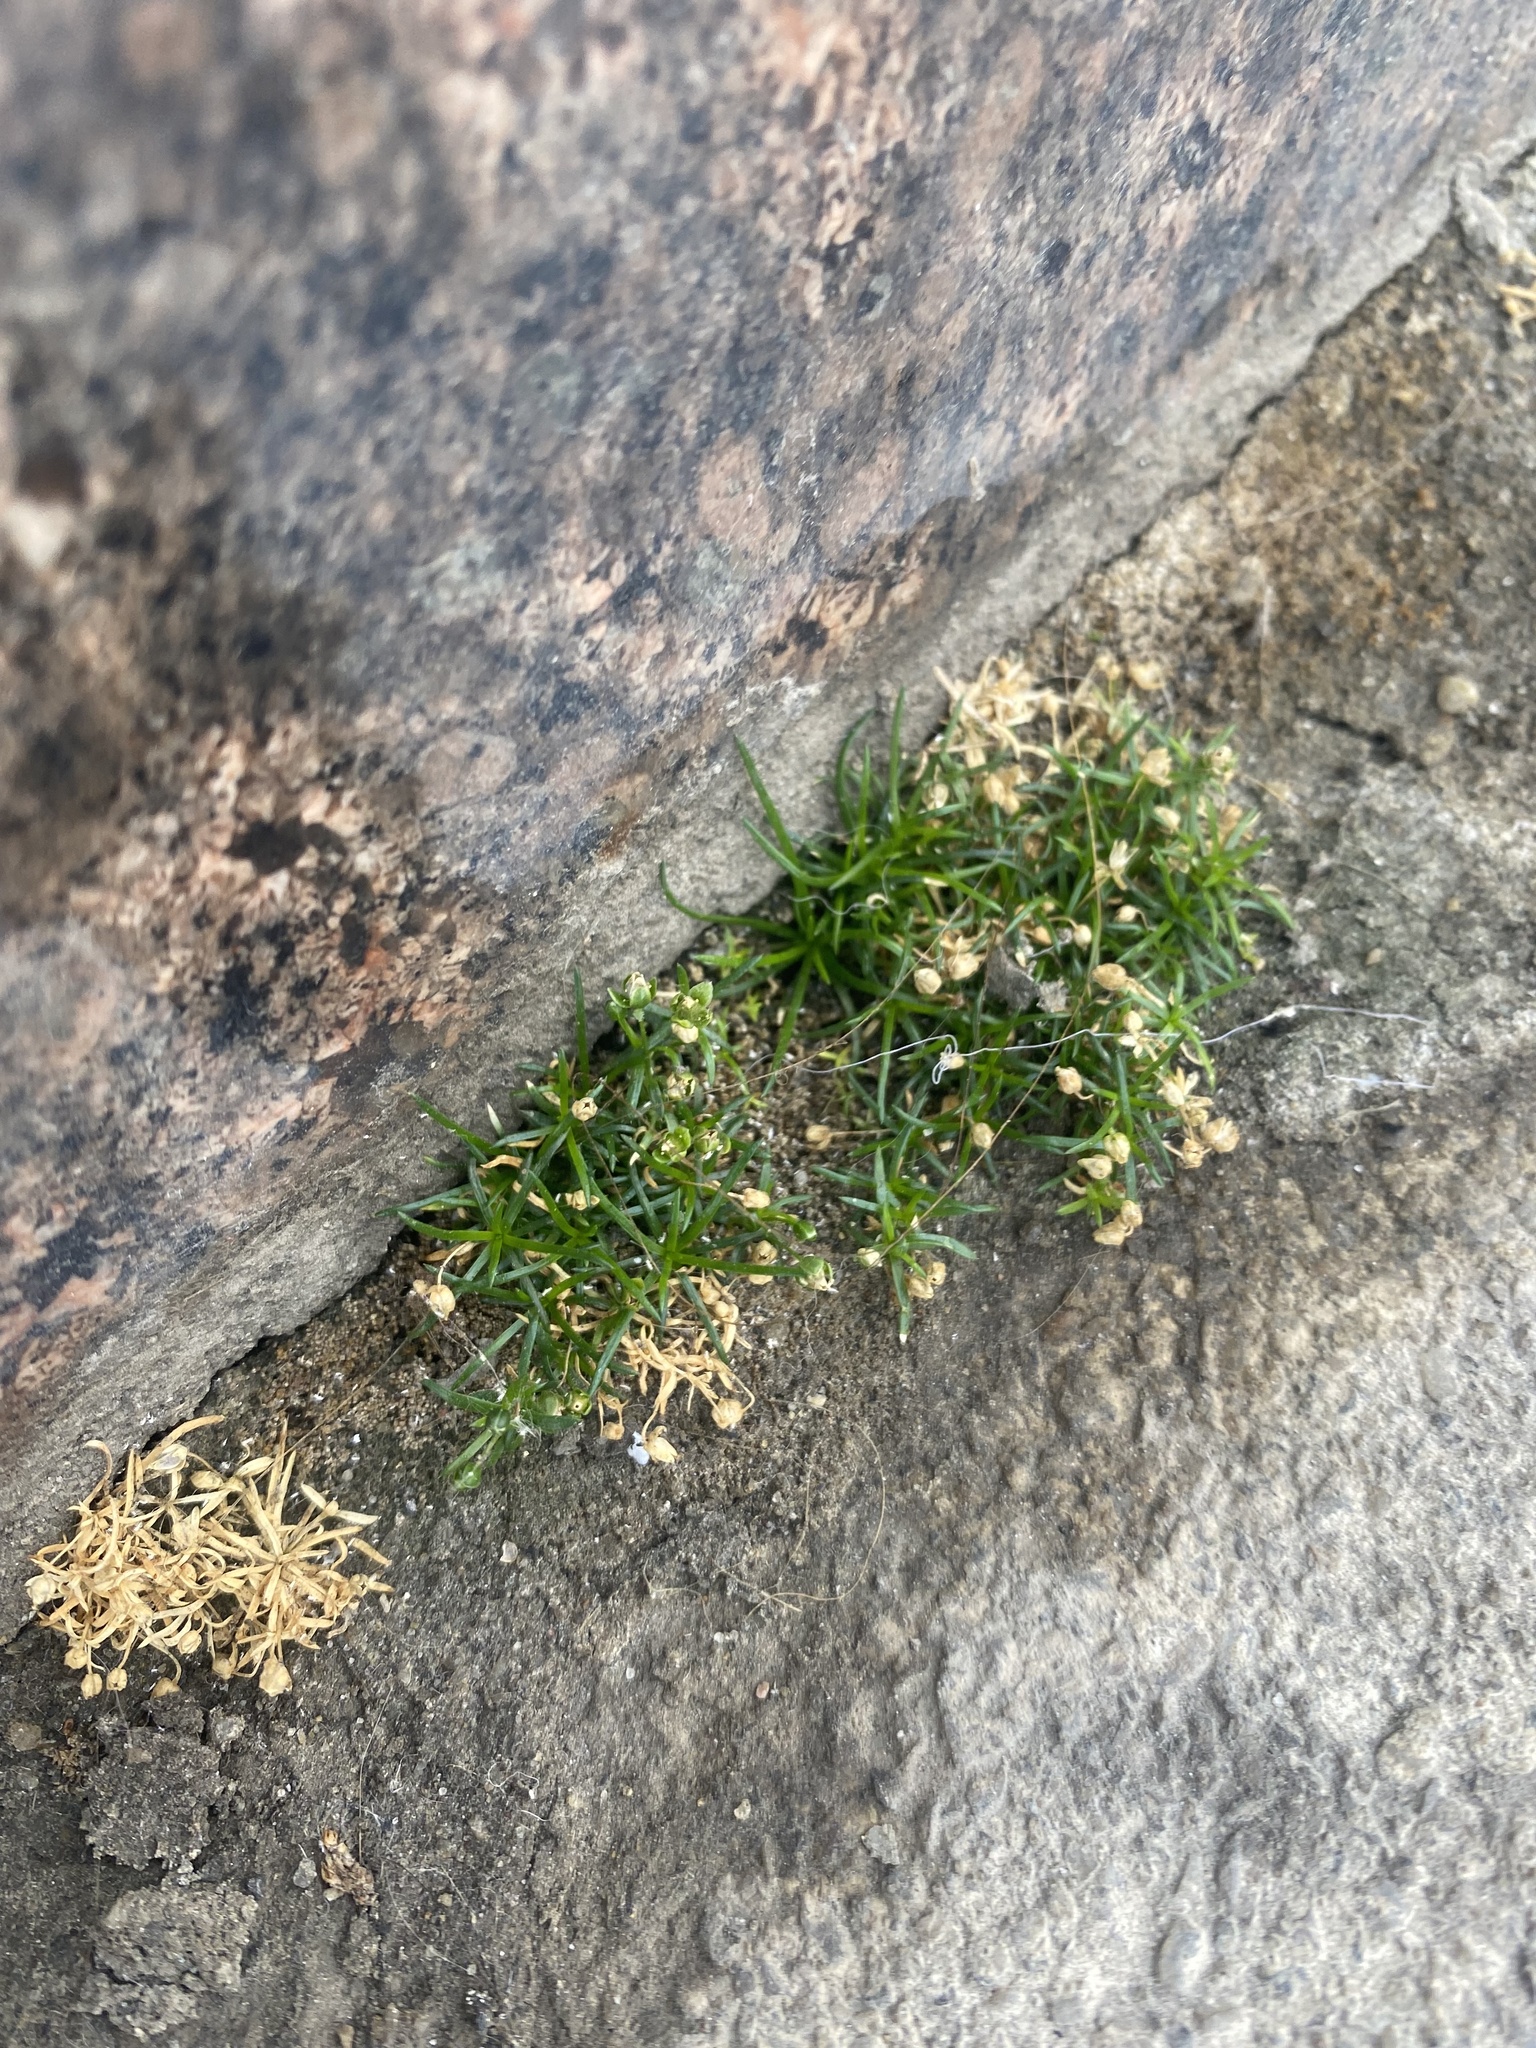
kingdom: Plantae
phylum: Tracheophyta
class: Magnoliopsida
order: Caryophyllales
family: Caryophyllaceae
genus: Sagina
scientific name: Sagina procumbens
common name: Procumbent pearlwort
